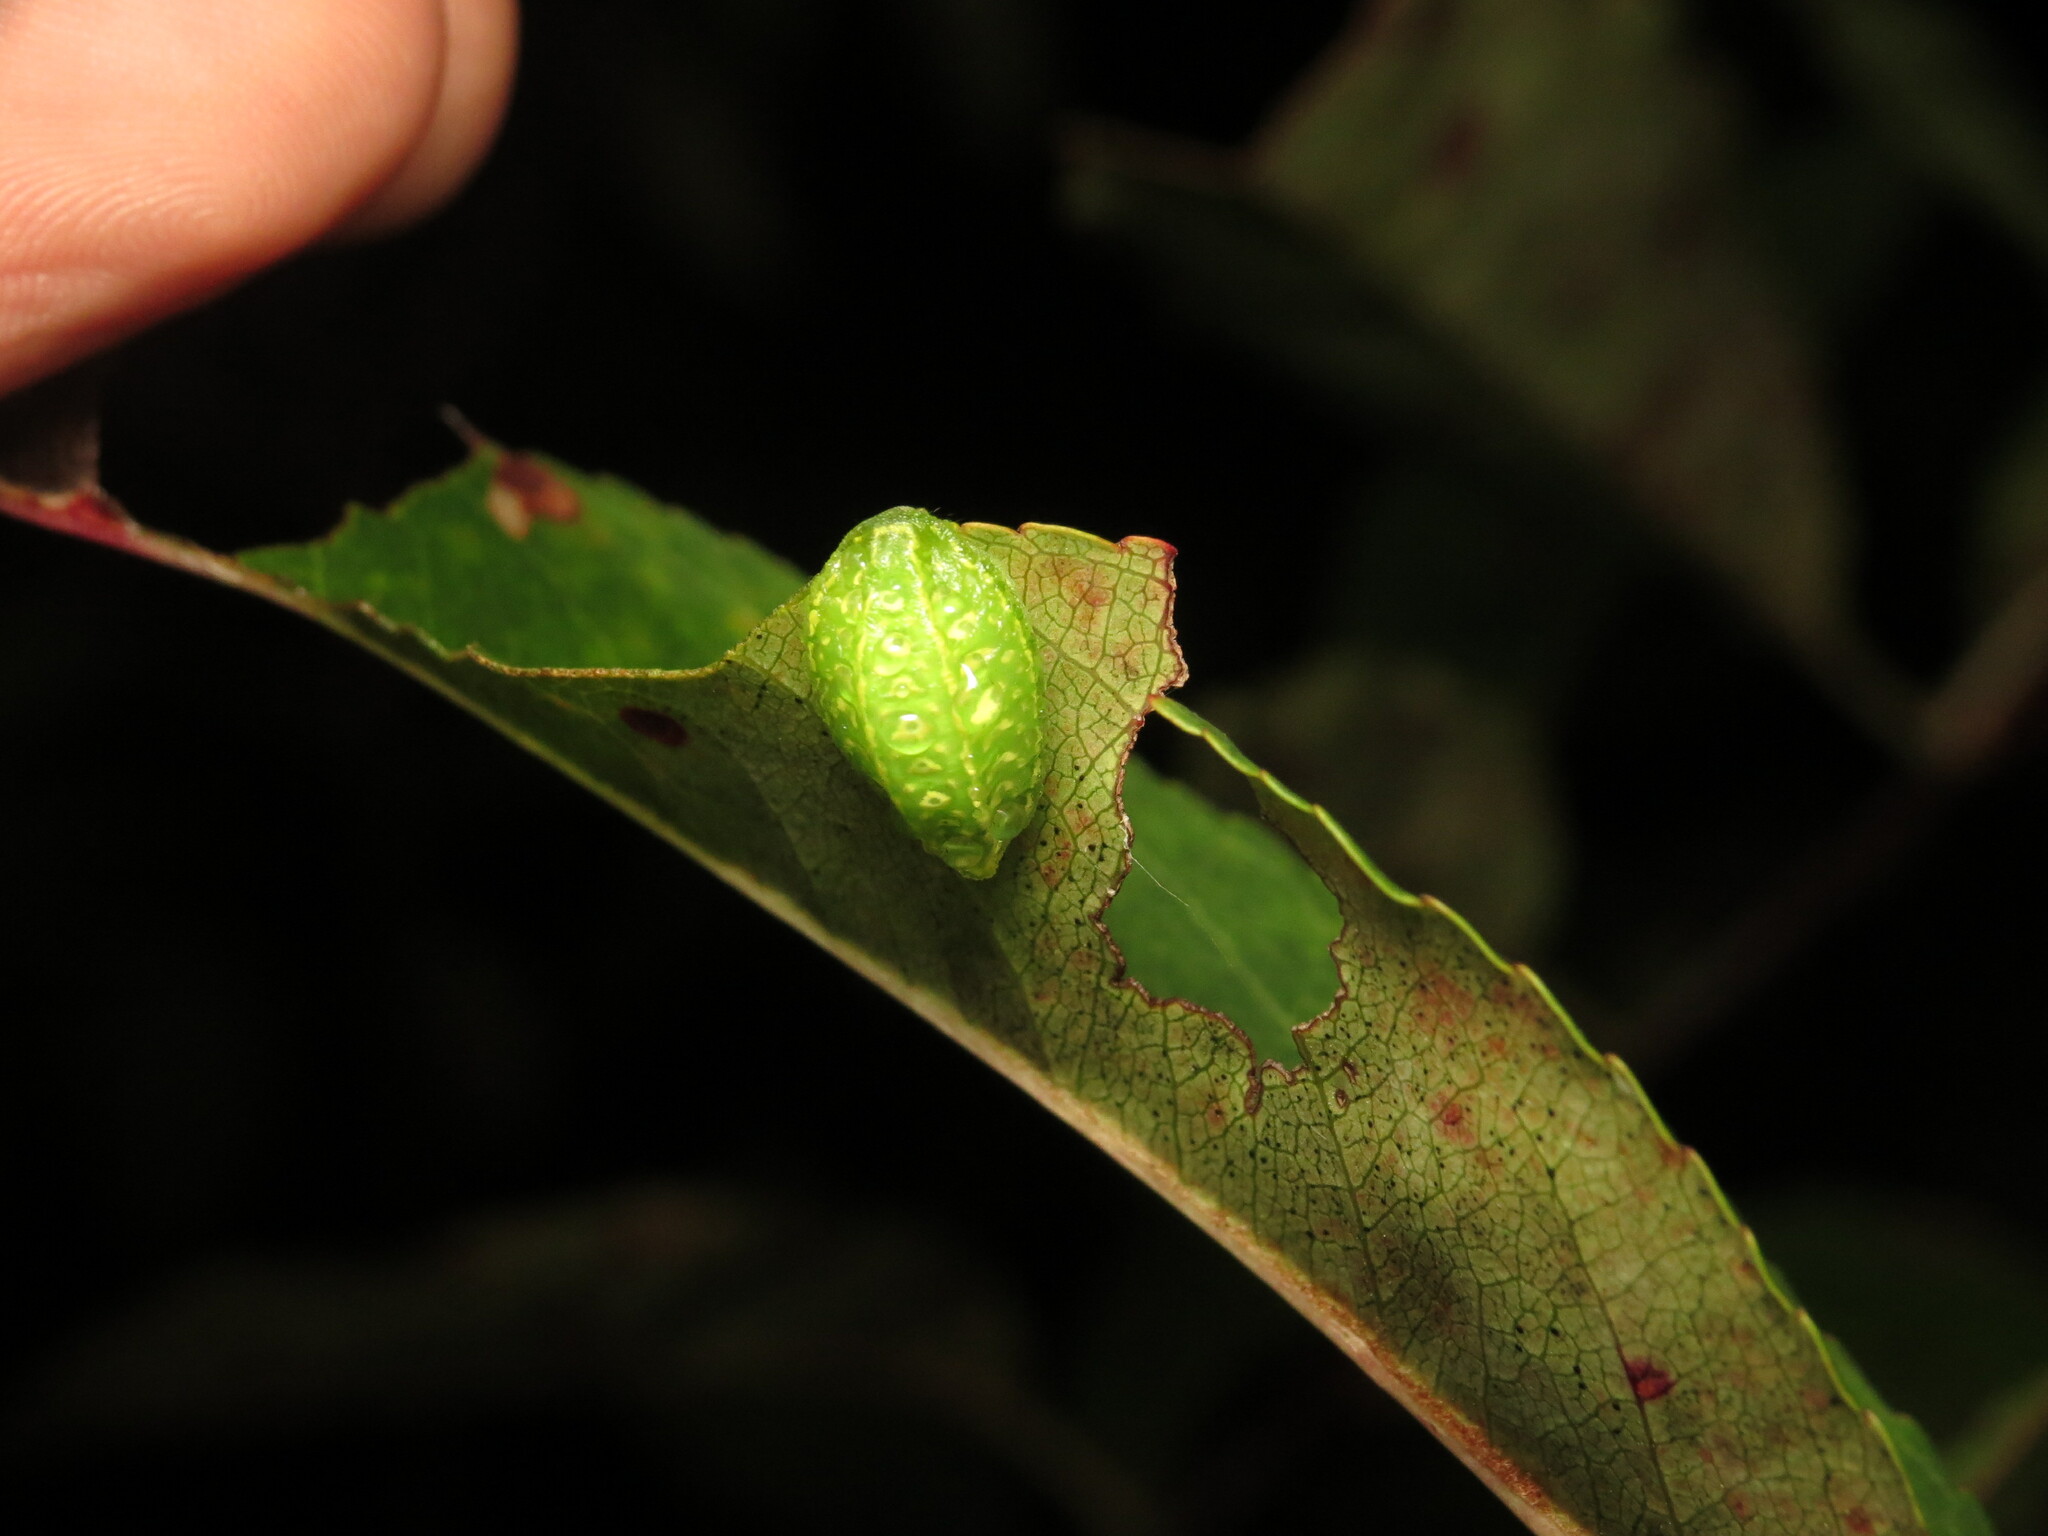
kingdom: Animalia
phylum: Arthropoda
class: Insecta
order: Lepidoptera
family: Limacodidae
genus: Lithacodes
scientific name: Lithacodes fasciola
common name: Yellow-shouldered slug moth
